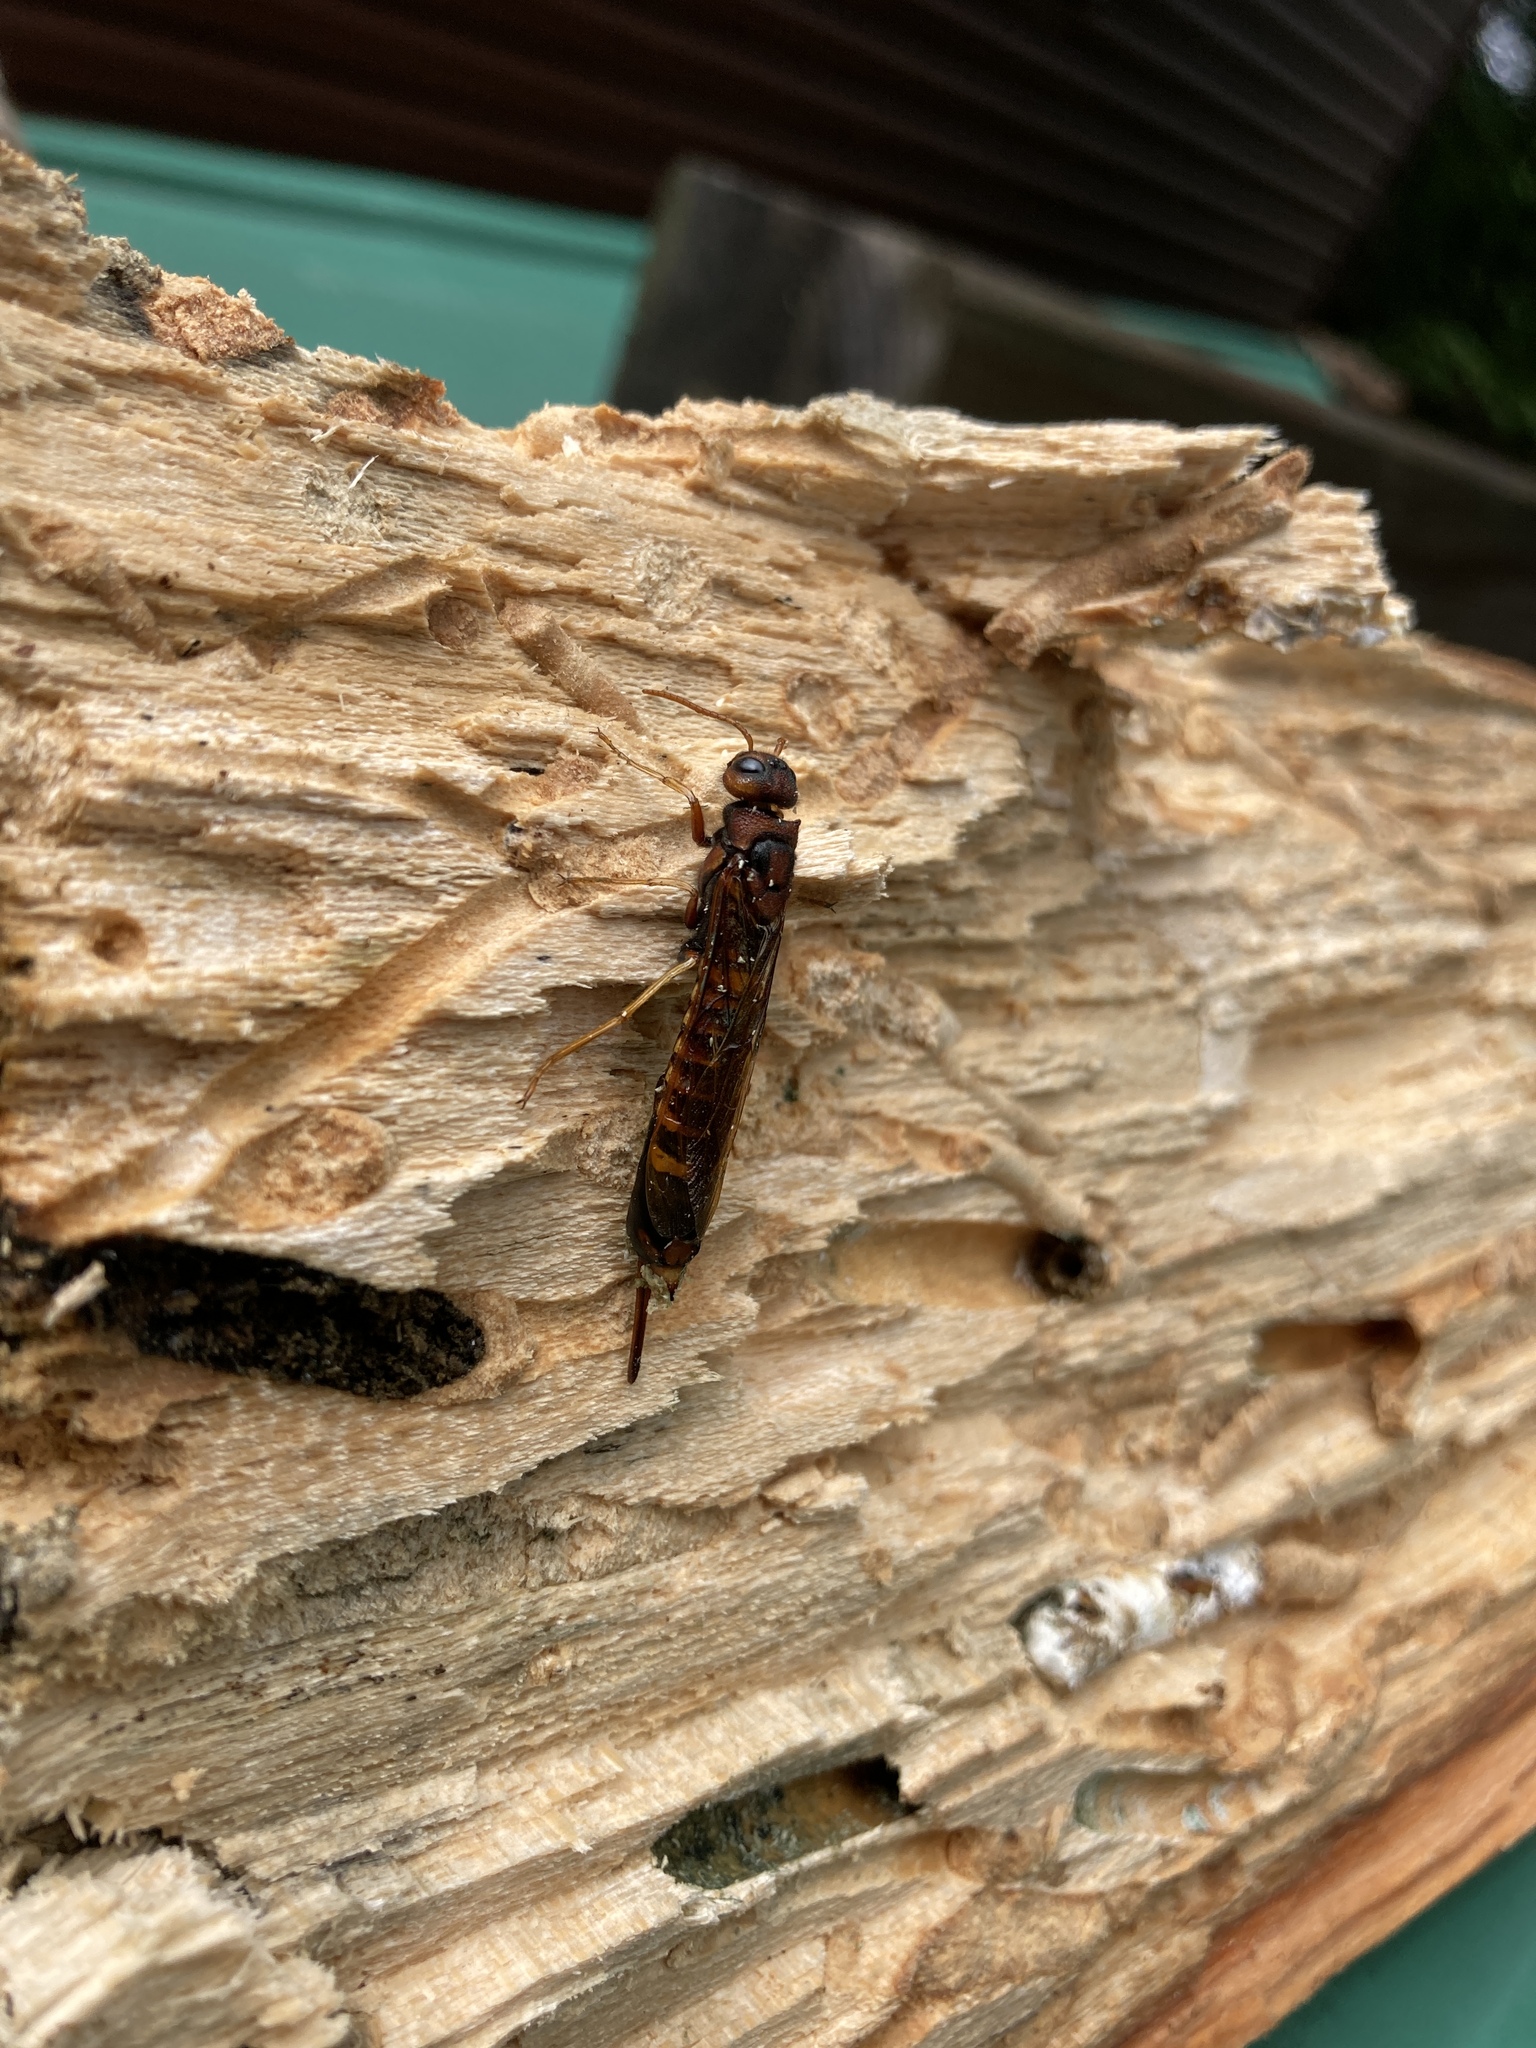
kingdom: Animalia
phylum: Arthropoda
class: Insecta
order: Hymenoptera
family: Siricidae
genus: Tremex
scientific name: Tremex columba
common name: Wasp
